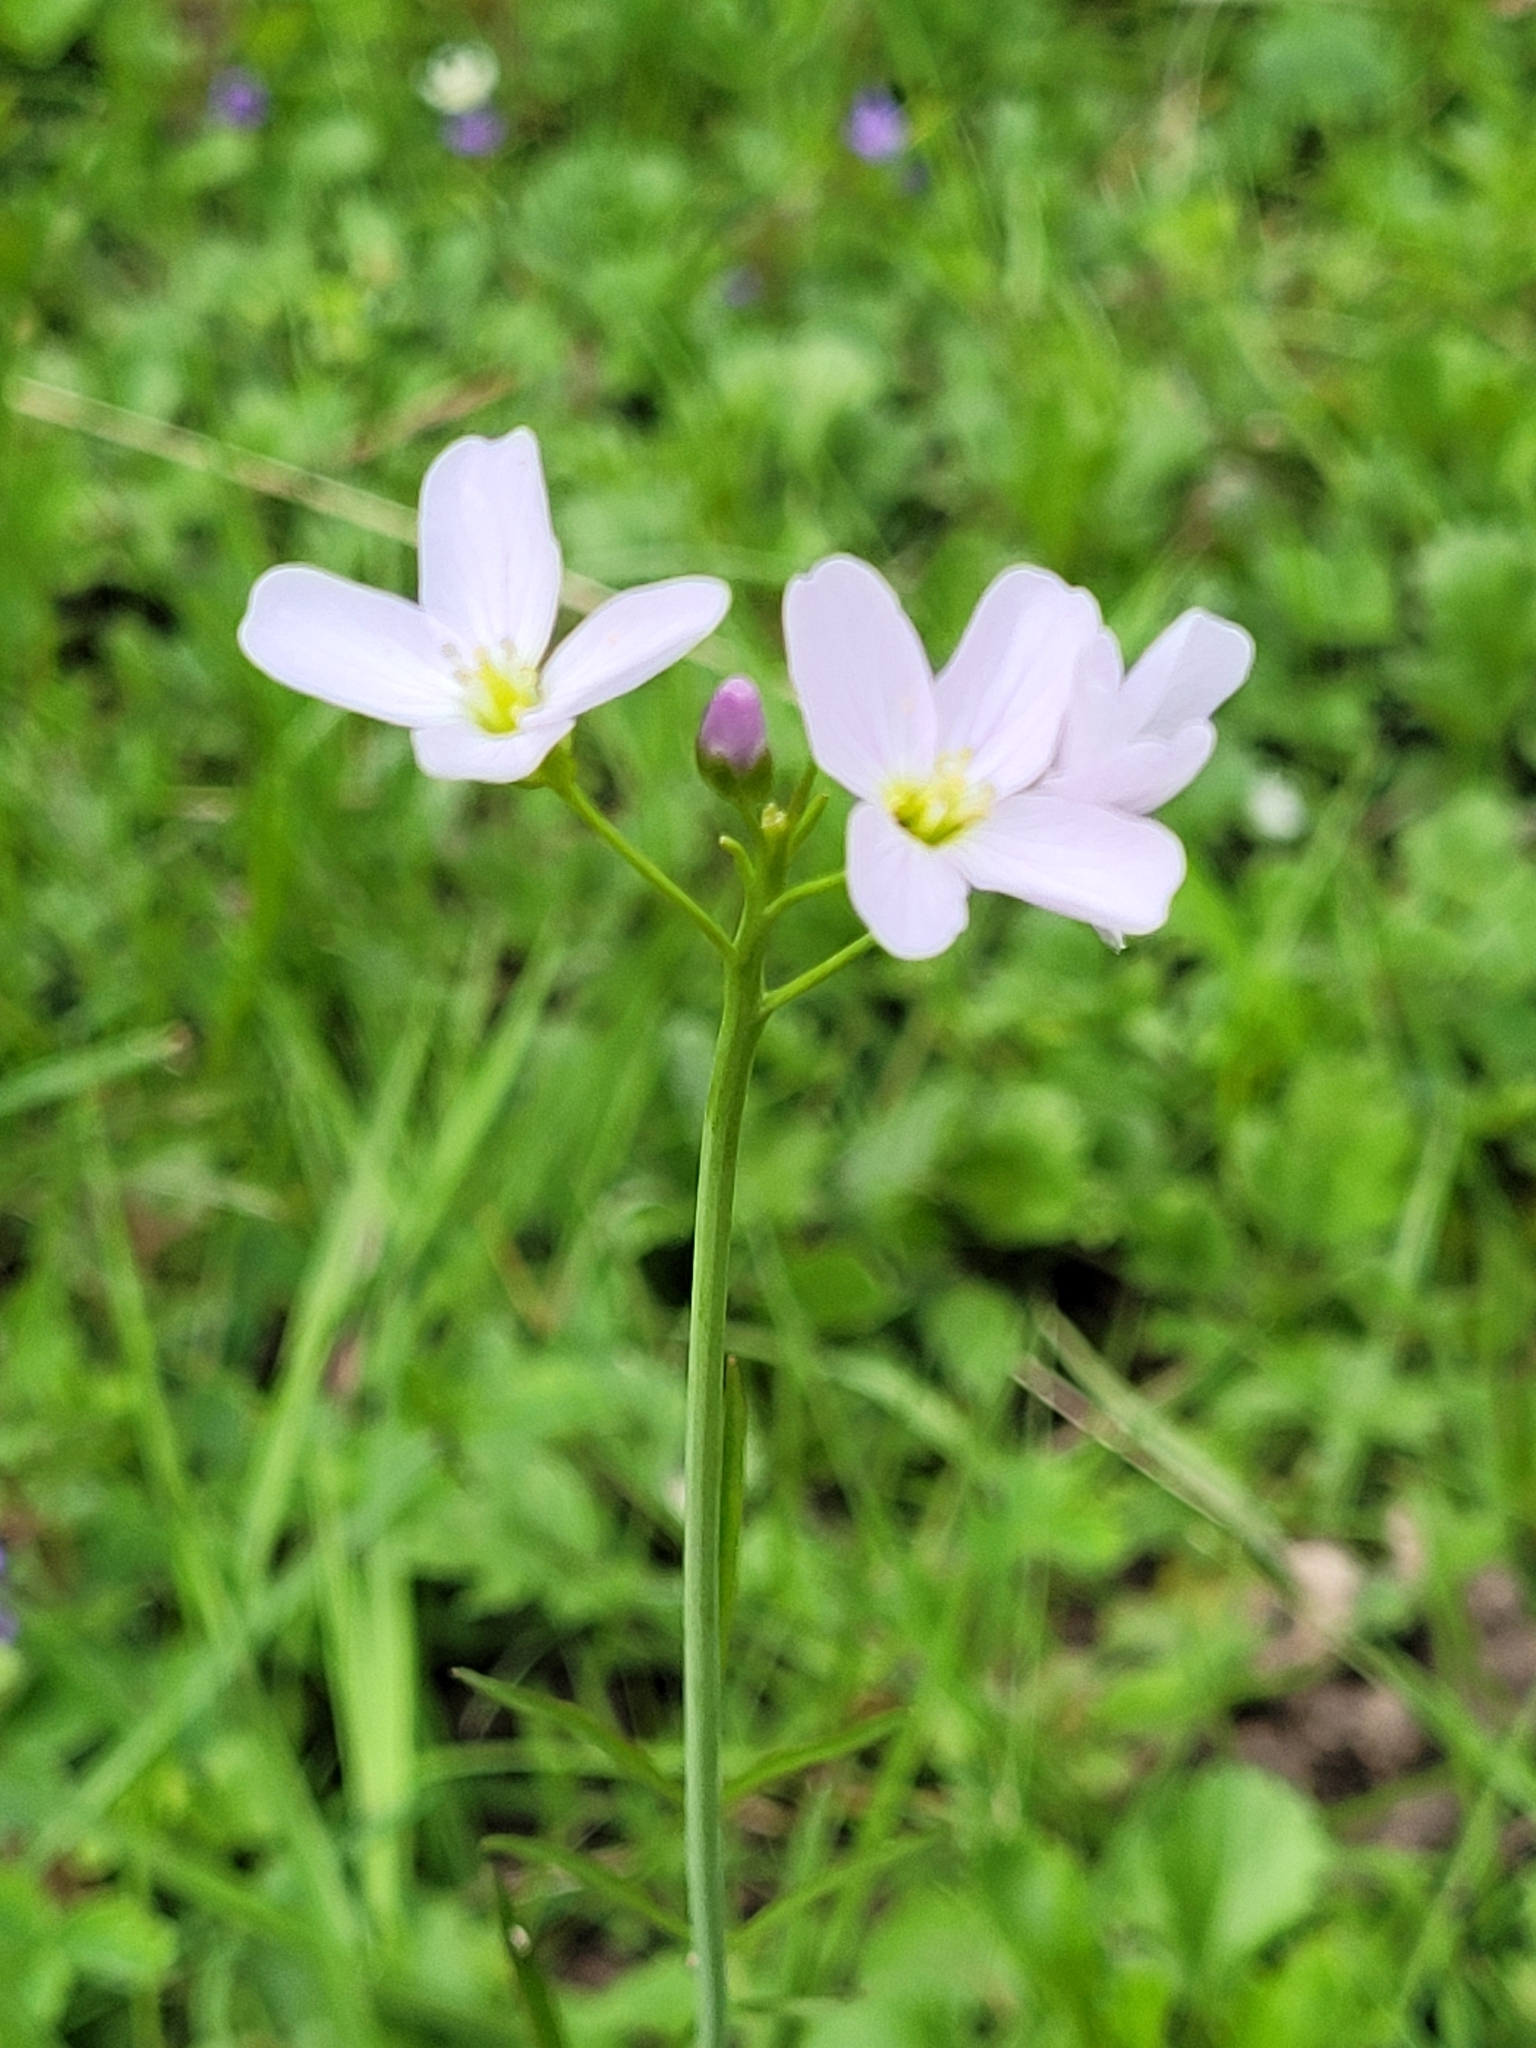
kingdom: Plantae
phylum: Tracheophyta
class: Magnoliopsida
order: Brassicales
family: Brassicaceae
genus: Cardamine
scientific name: Cardamine pratensis
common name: Cuckoo flower
